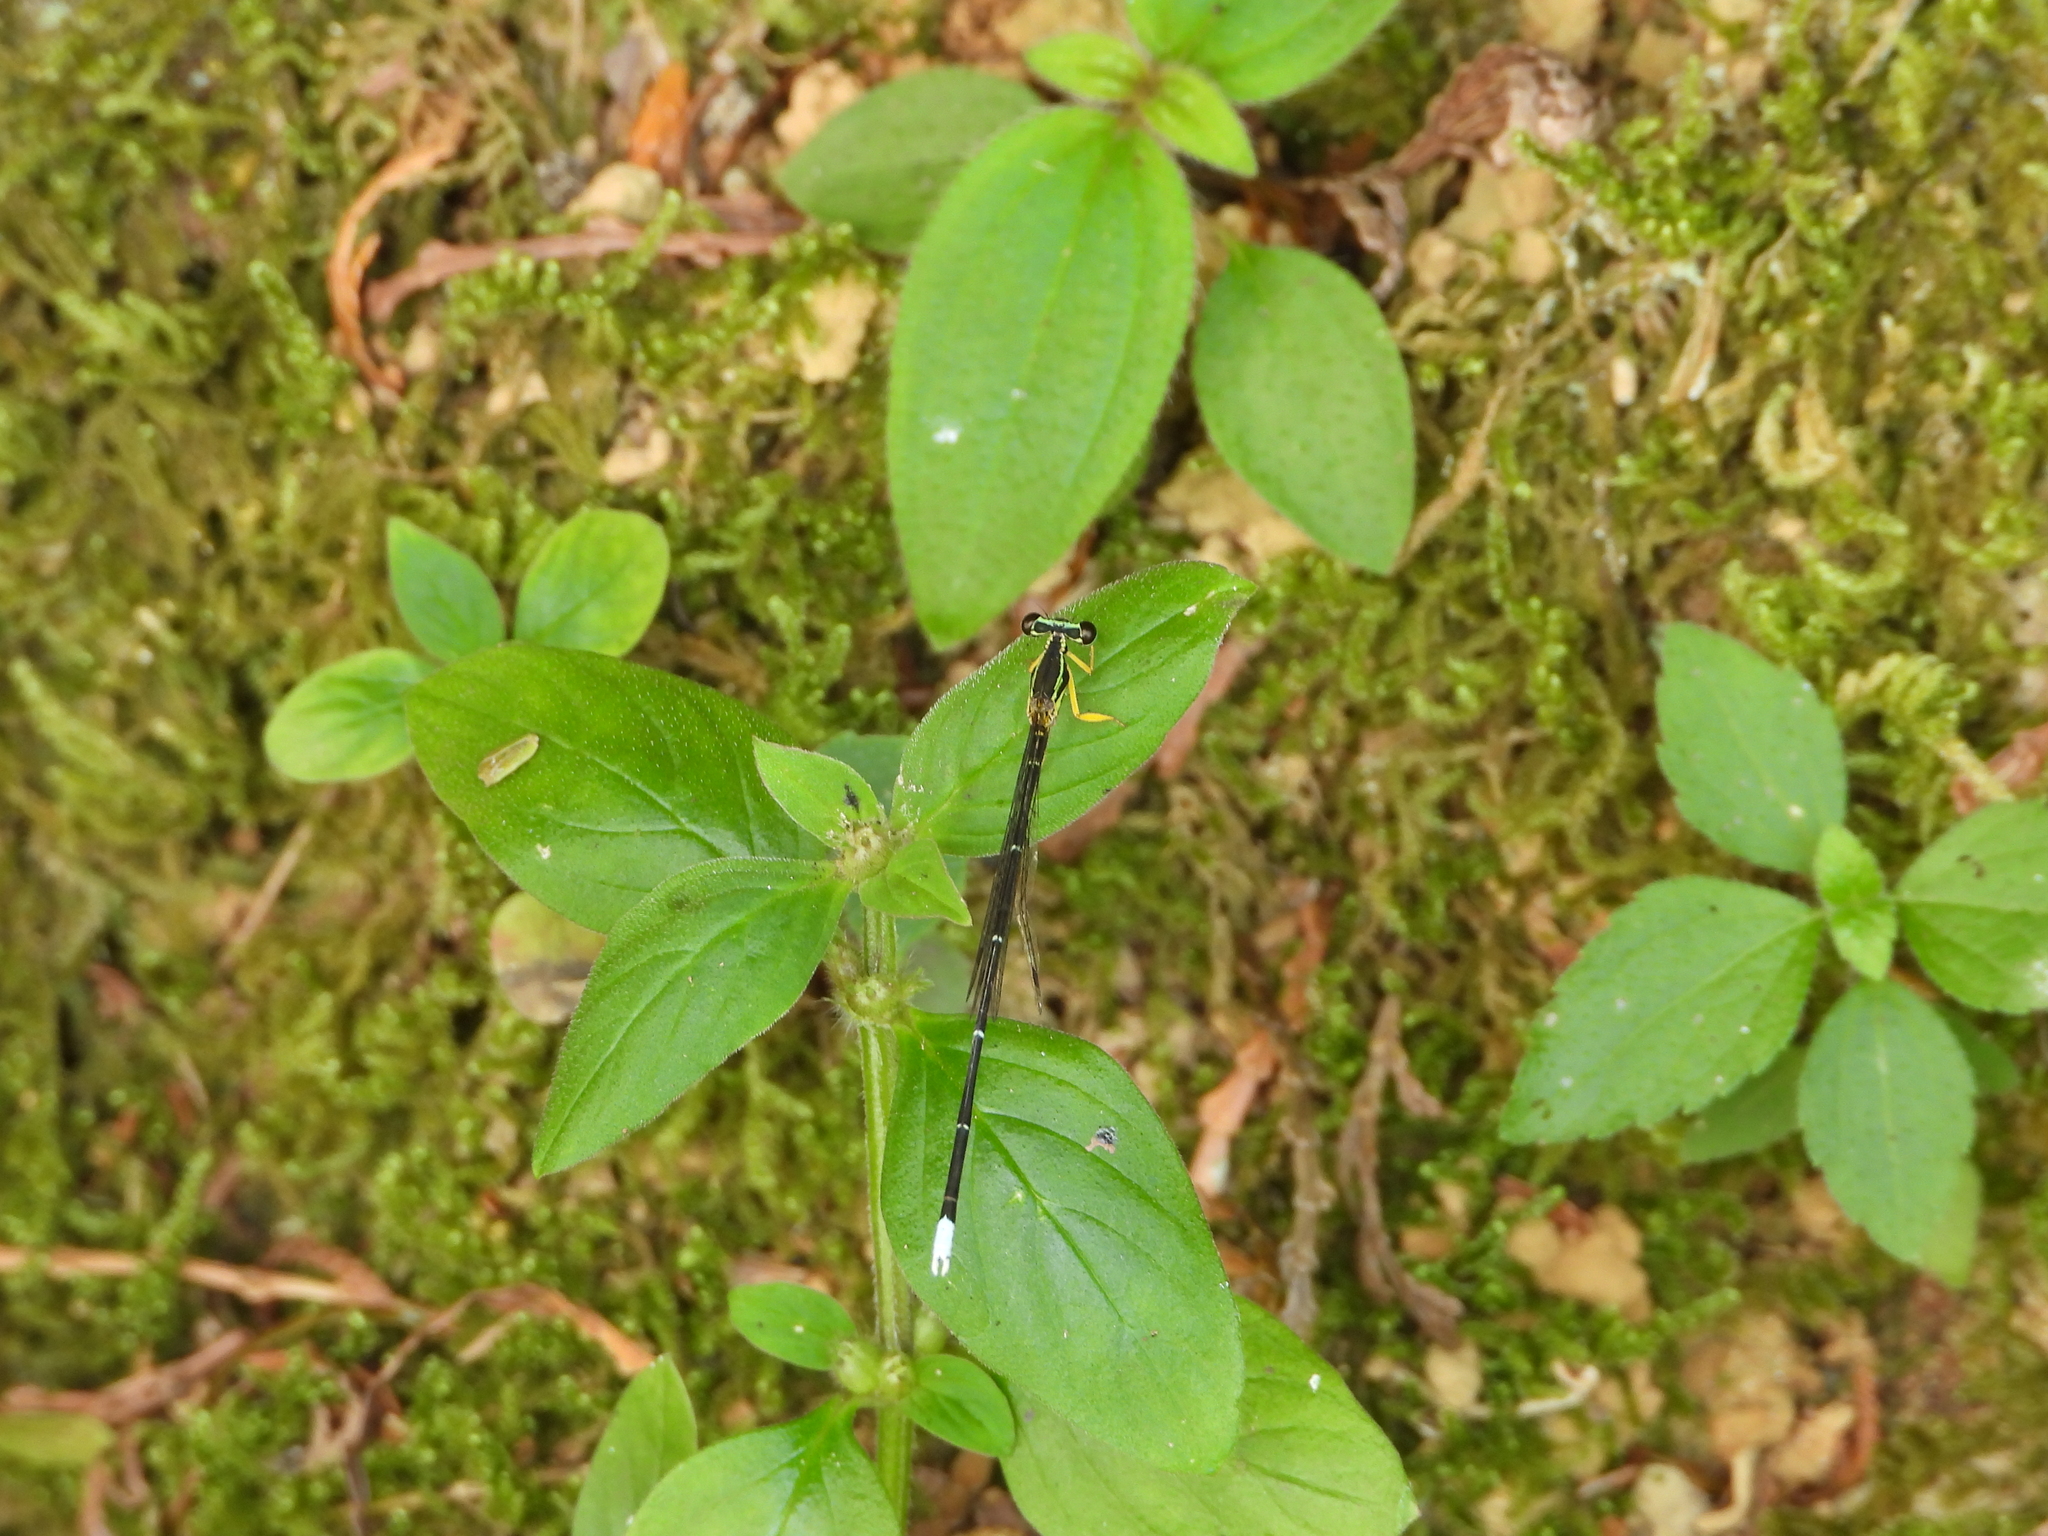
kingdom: Animalia
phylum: Arthropoda
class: Insecta
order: Odonata
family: Platycnemididae
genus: Copera
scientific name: Copera marginipes
